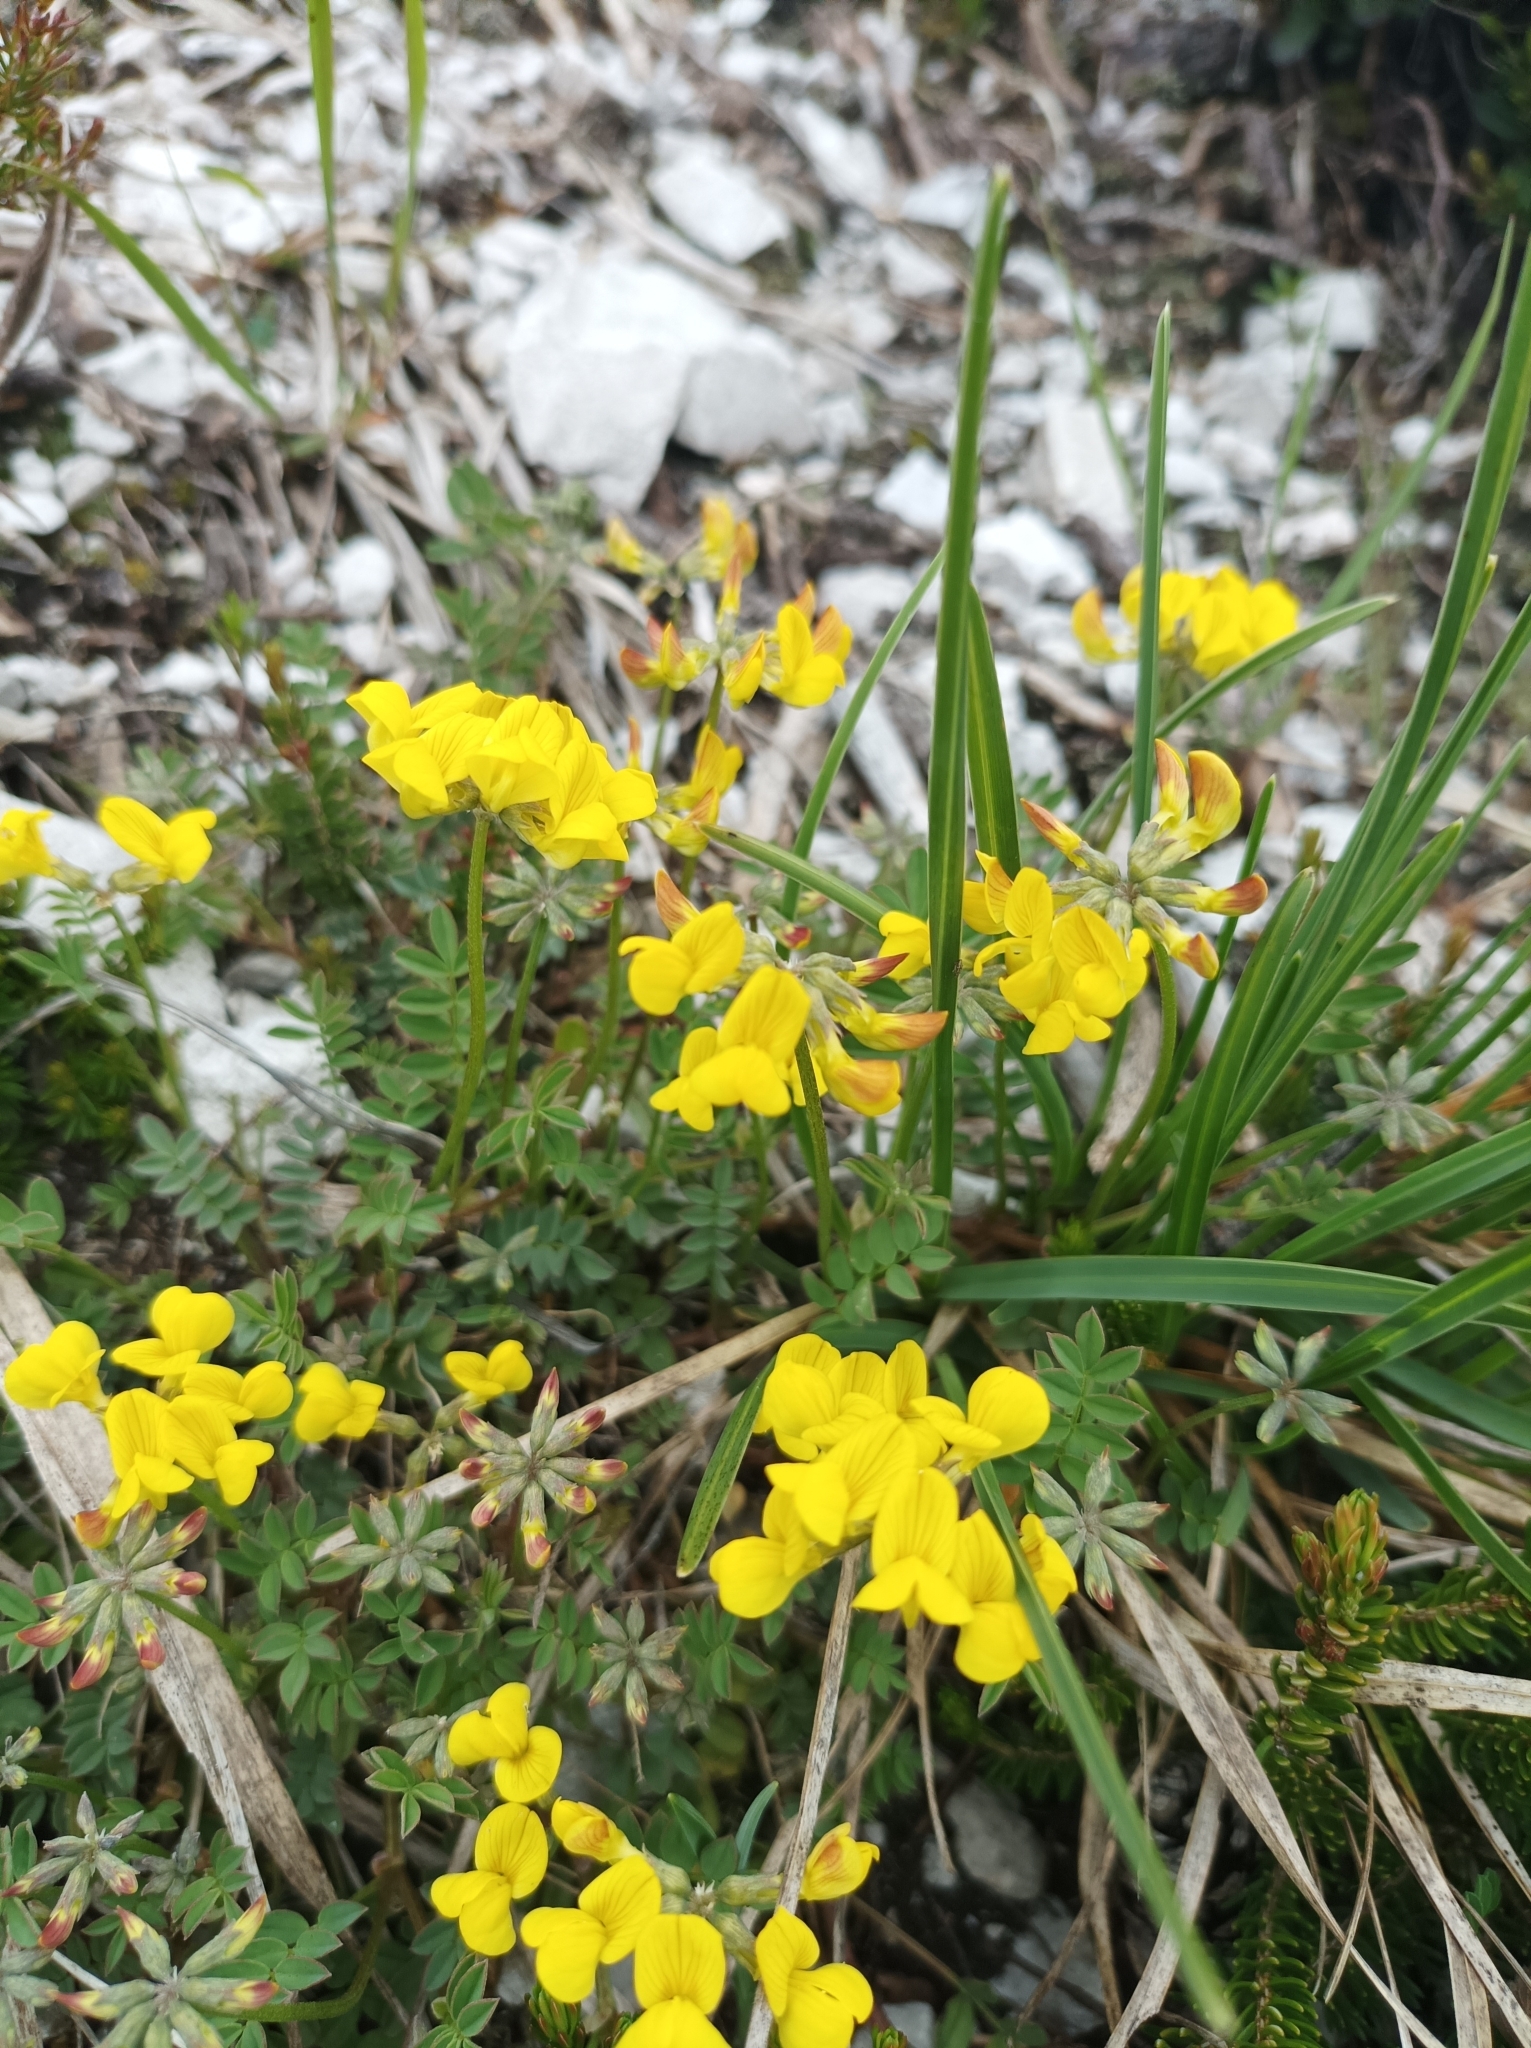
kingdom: Plantae
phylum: Tracheophyta
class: Magnoliopsida
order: Fabales
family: Fabaceae
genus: Hippocrepis
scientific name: Hippocrepis comosa
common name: Horseshoe vetch
